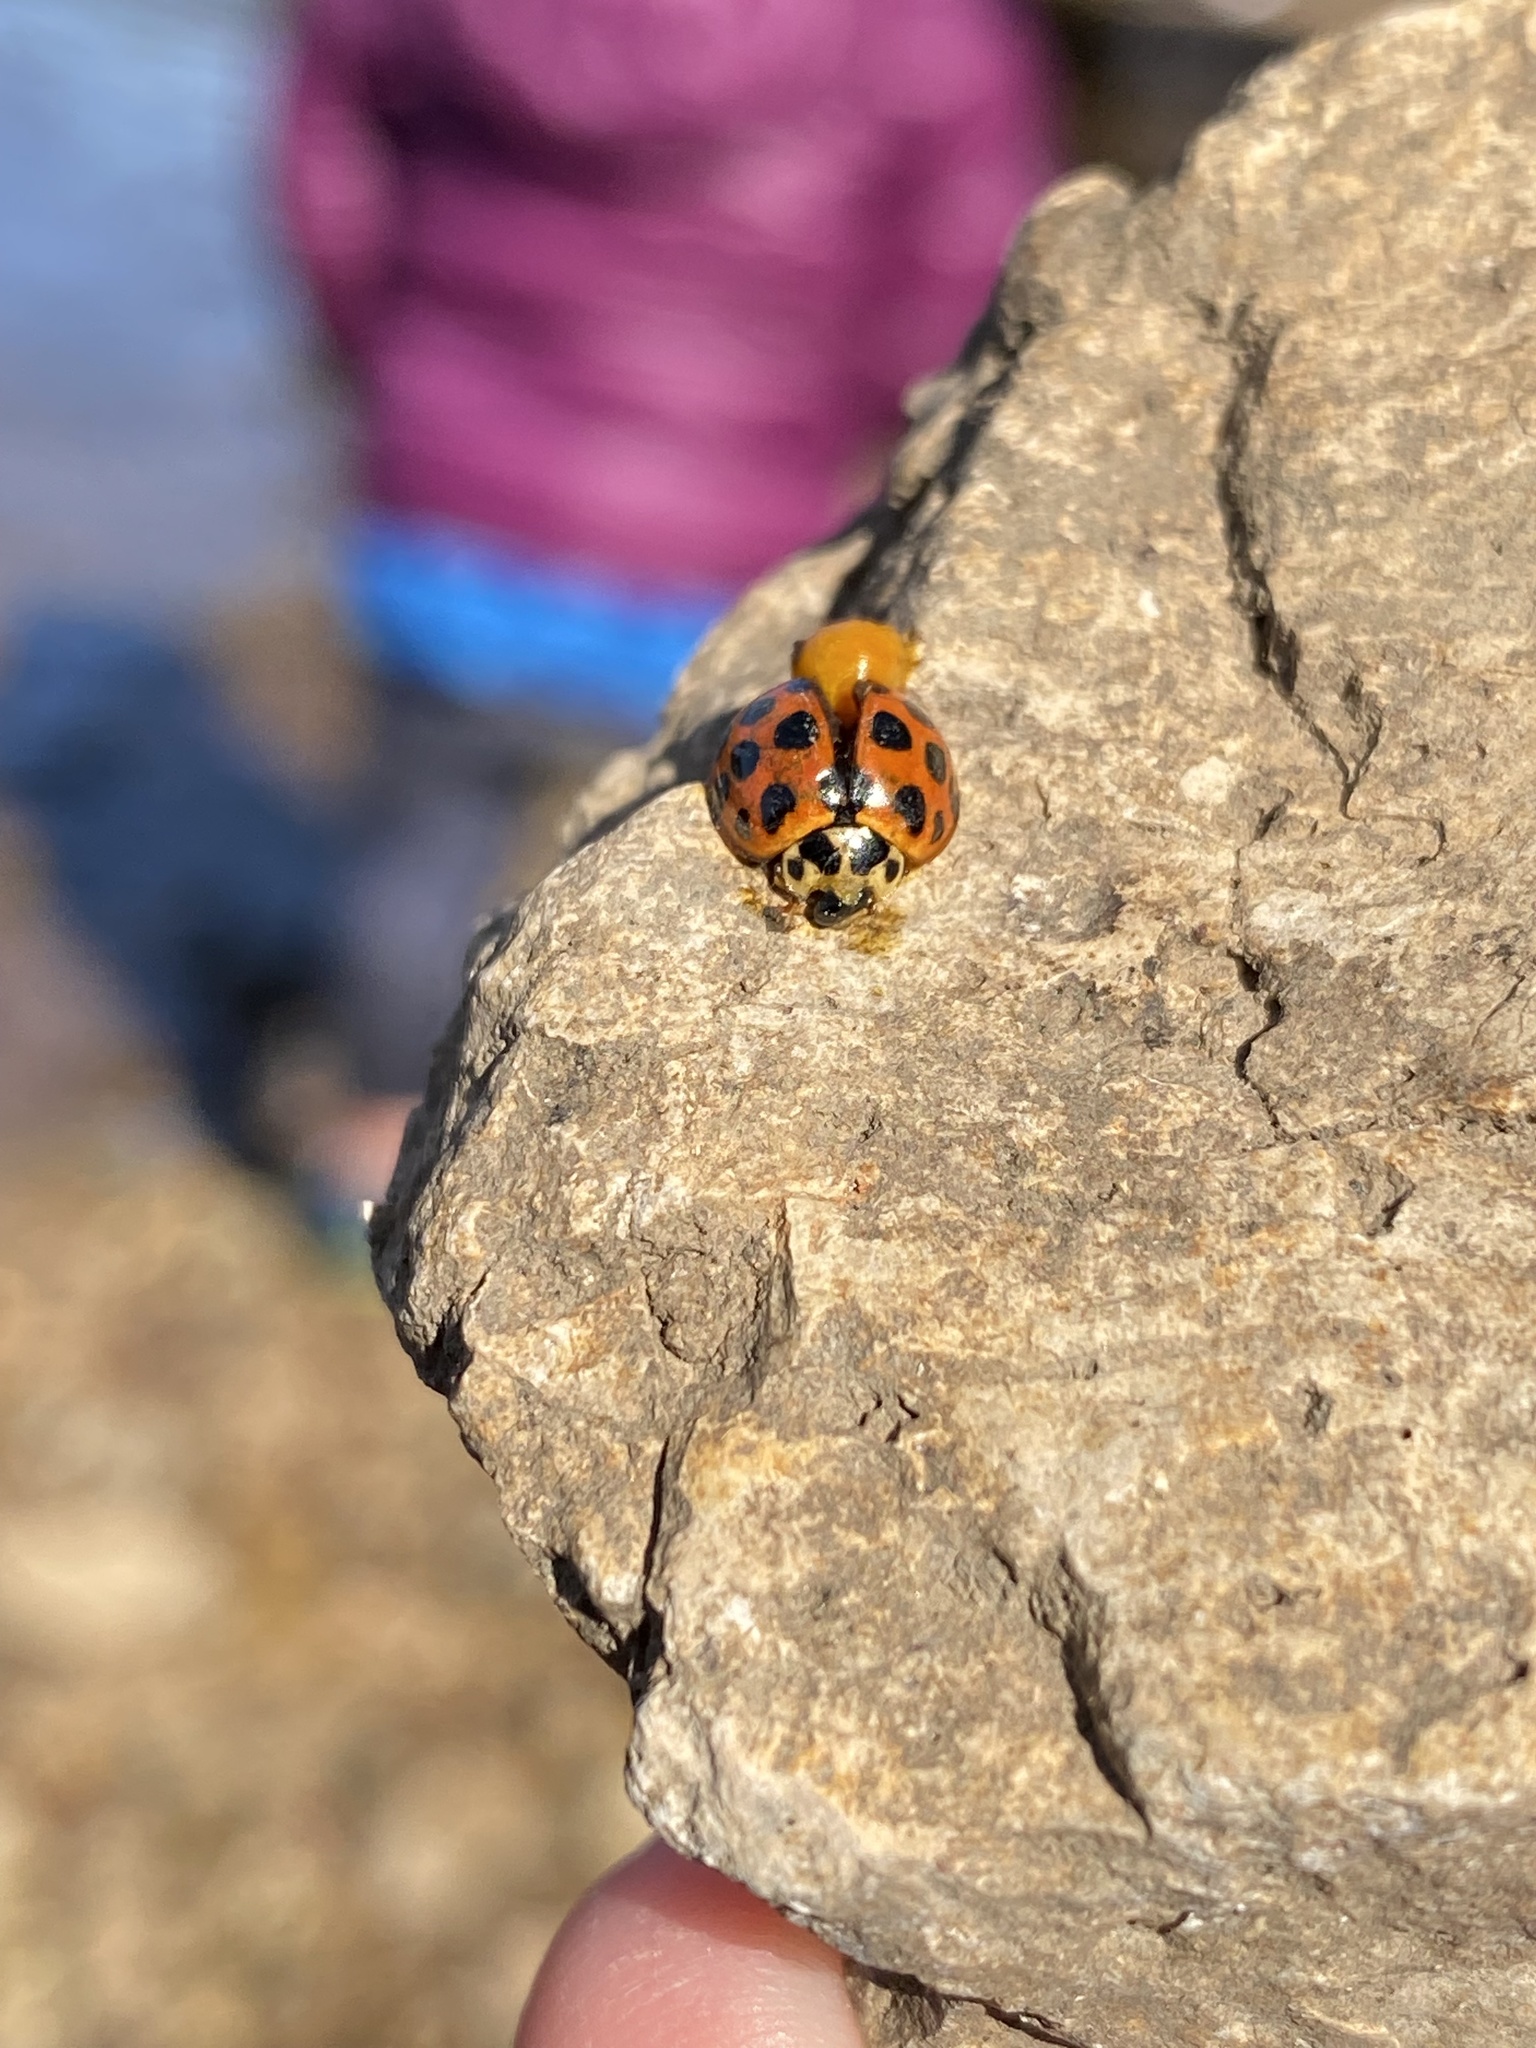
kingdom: Animalia
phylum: Arthropoda
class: Insecta
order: Coleoptera
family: Coccinellidae
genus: Harmonia
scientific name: Harmonia conformis
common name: Common spotted ladybird beetle
